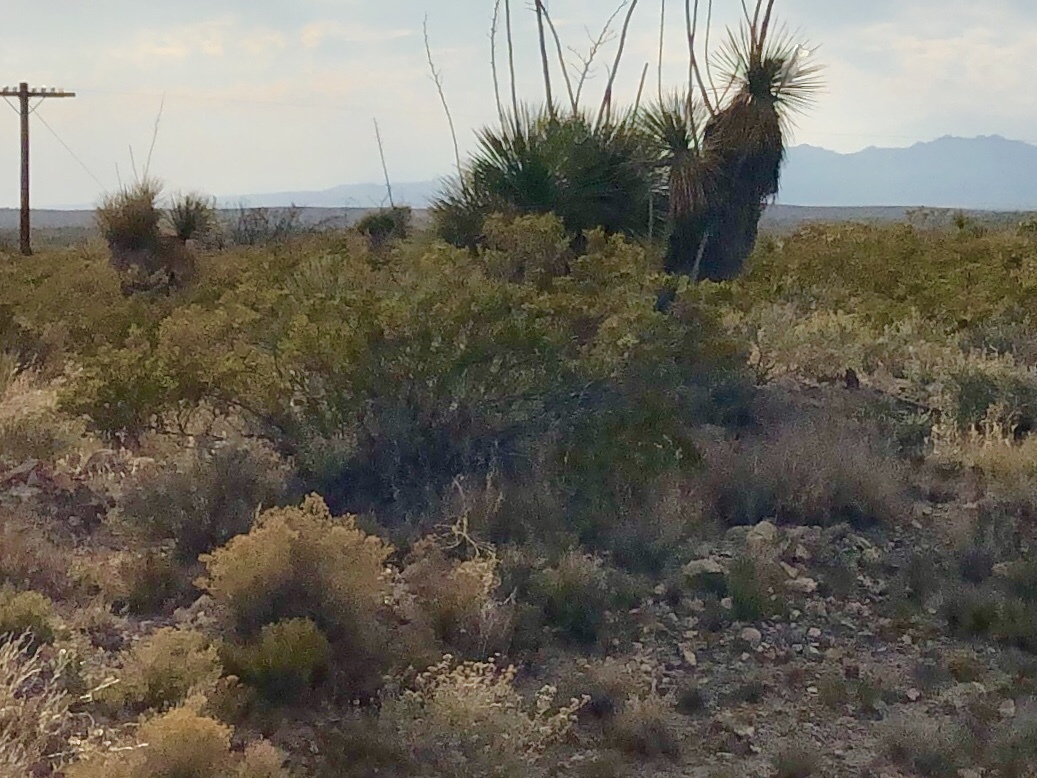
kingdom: Plantae
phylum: Tracheophyta
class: Magnoliopsida
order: Zygophyllales
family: Zygophyllaceae
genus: Larrea
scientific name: Larrea tridentata
